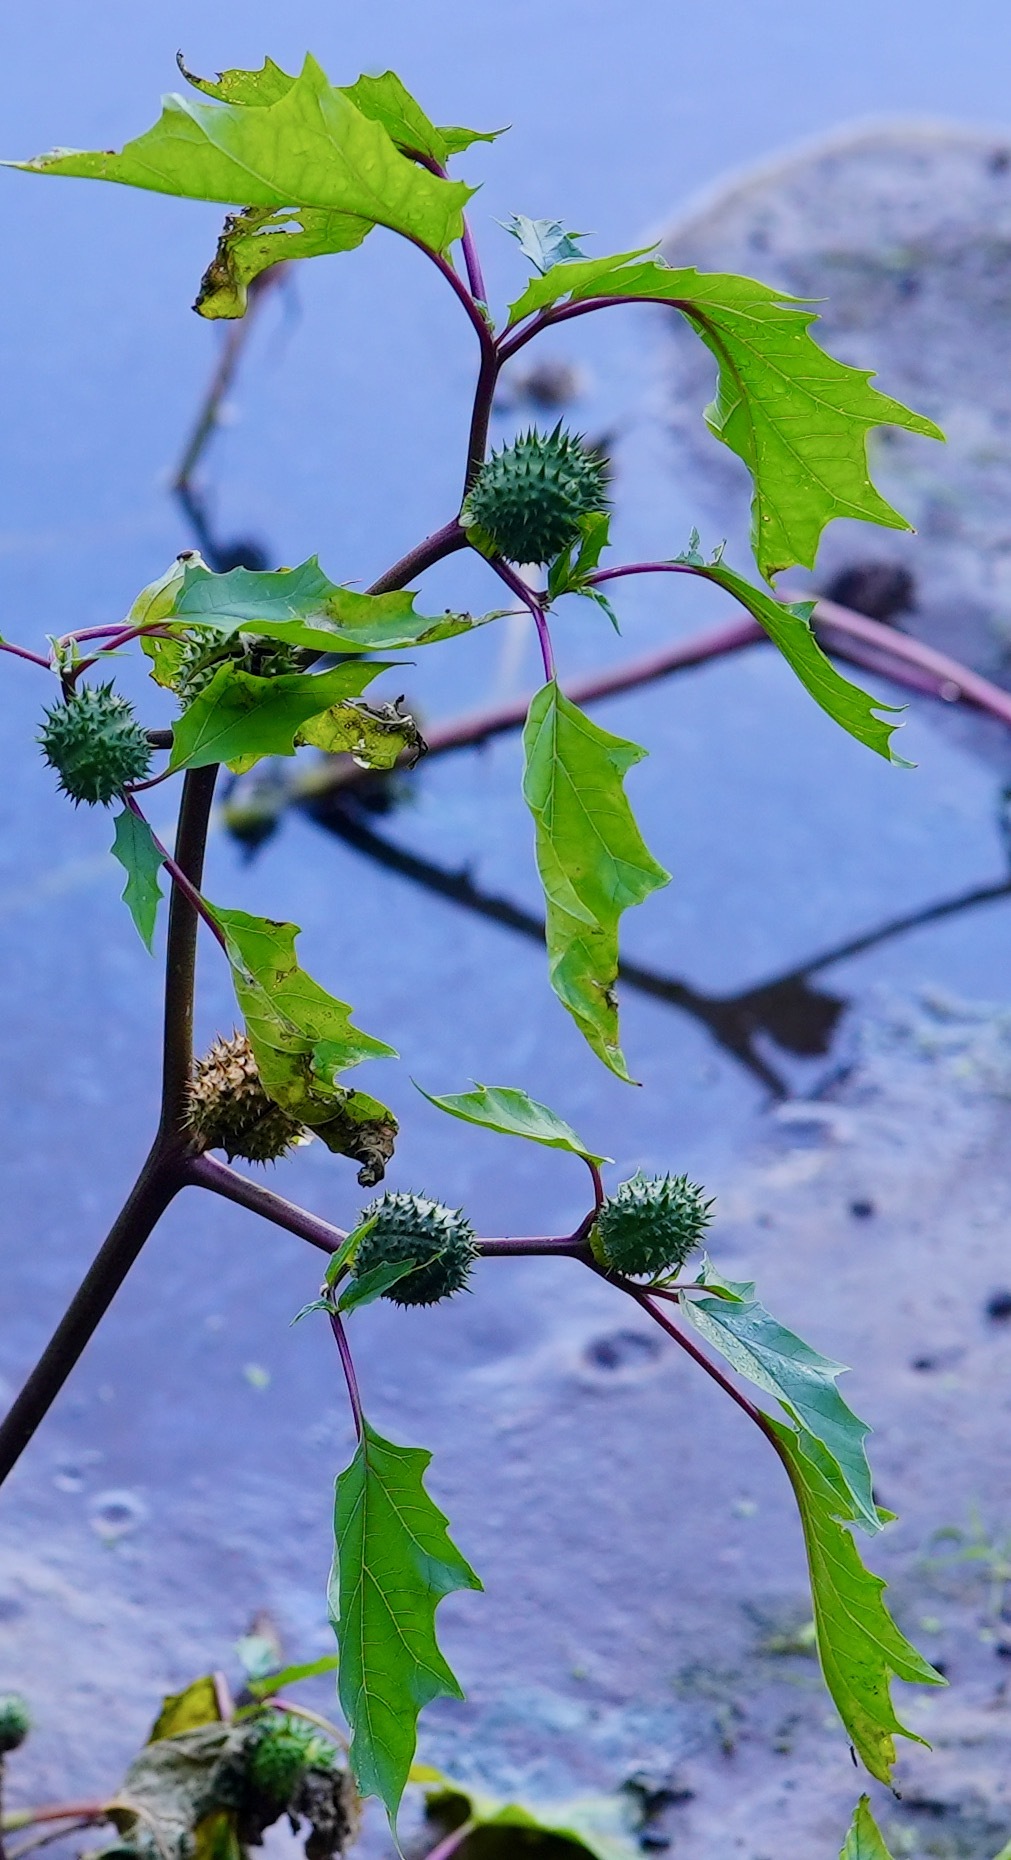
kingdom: Plantae
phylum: Tracheophyta
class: Magnoliopsida
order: Solanales
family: Solanaceae
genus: Datura
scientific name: Datura stramonium
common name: Thorn-apple
